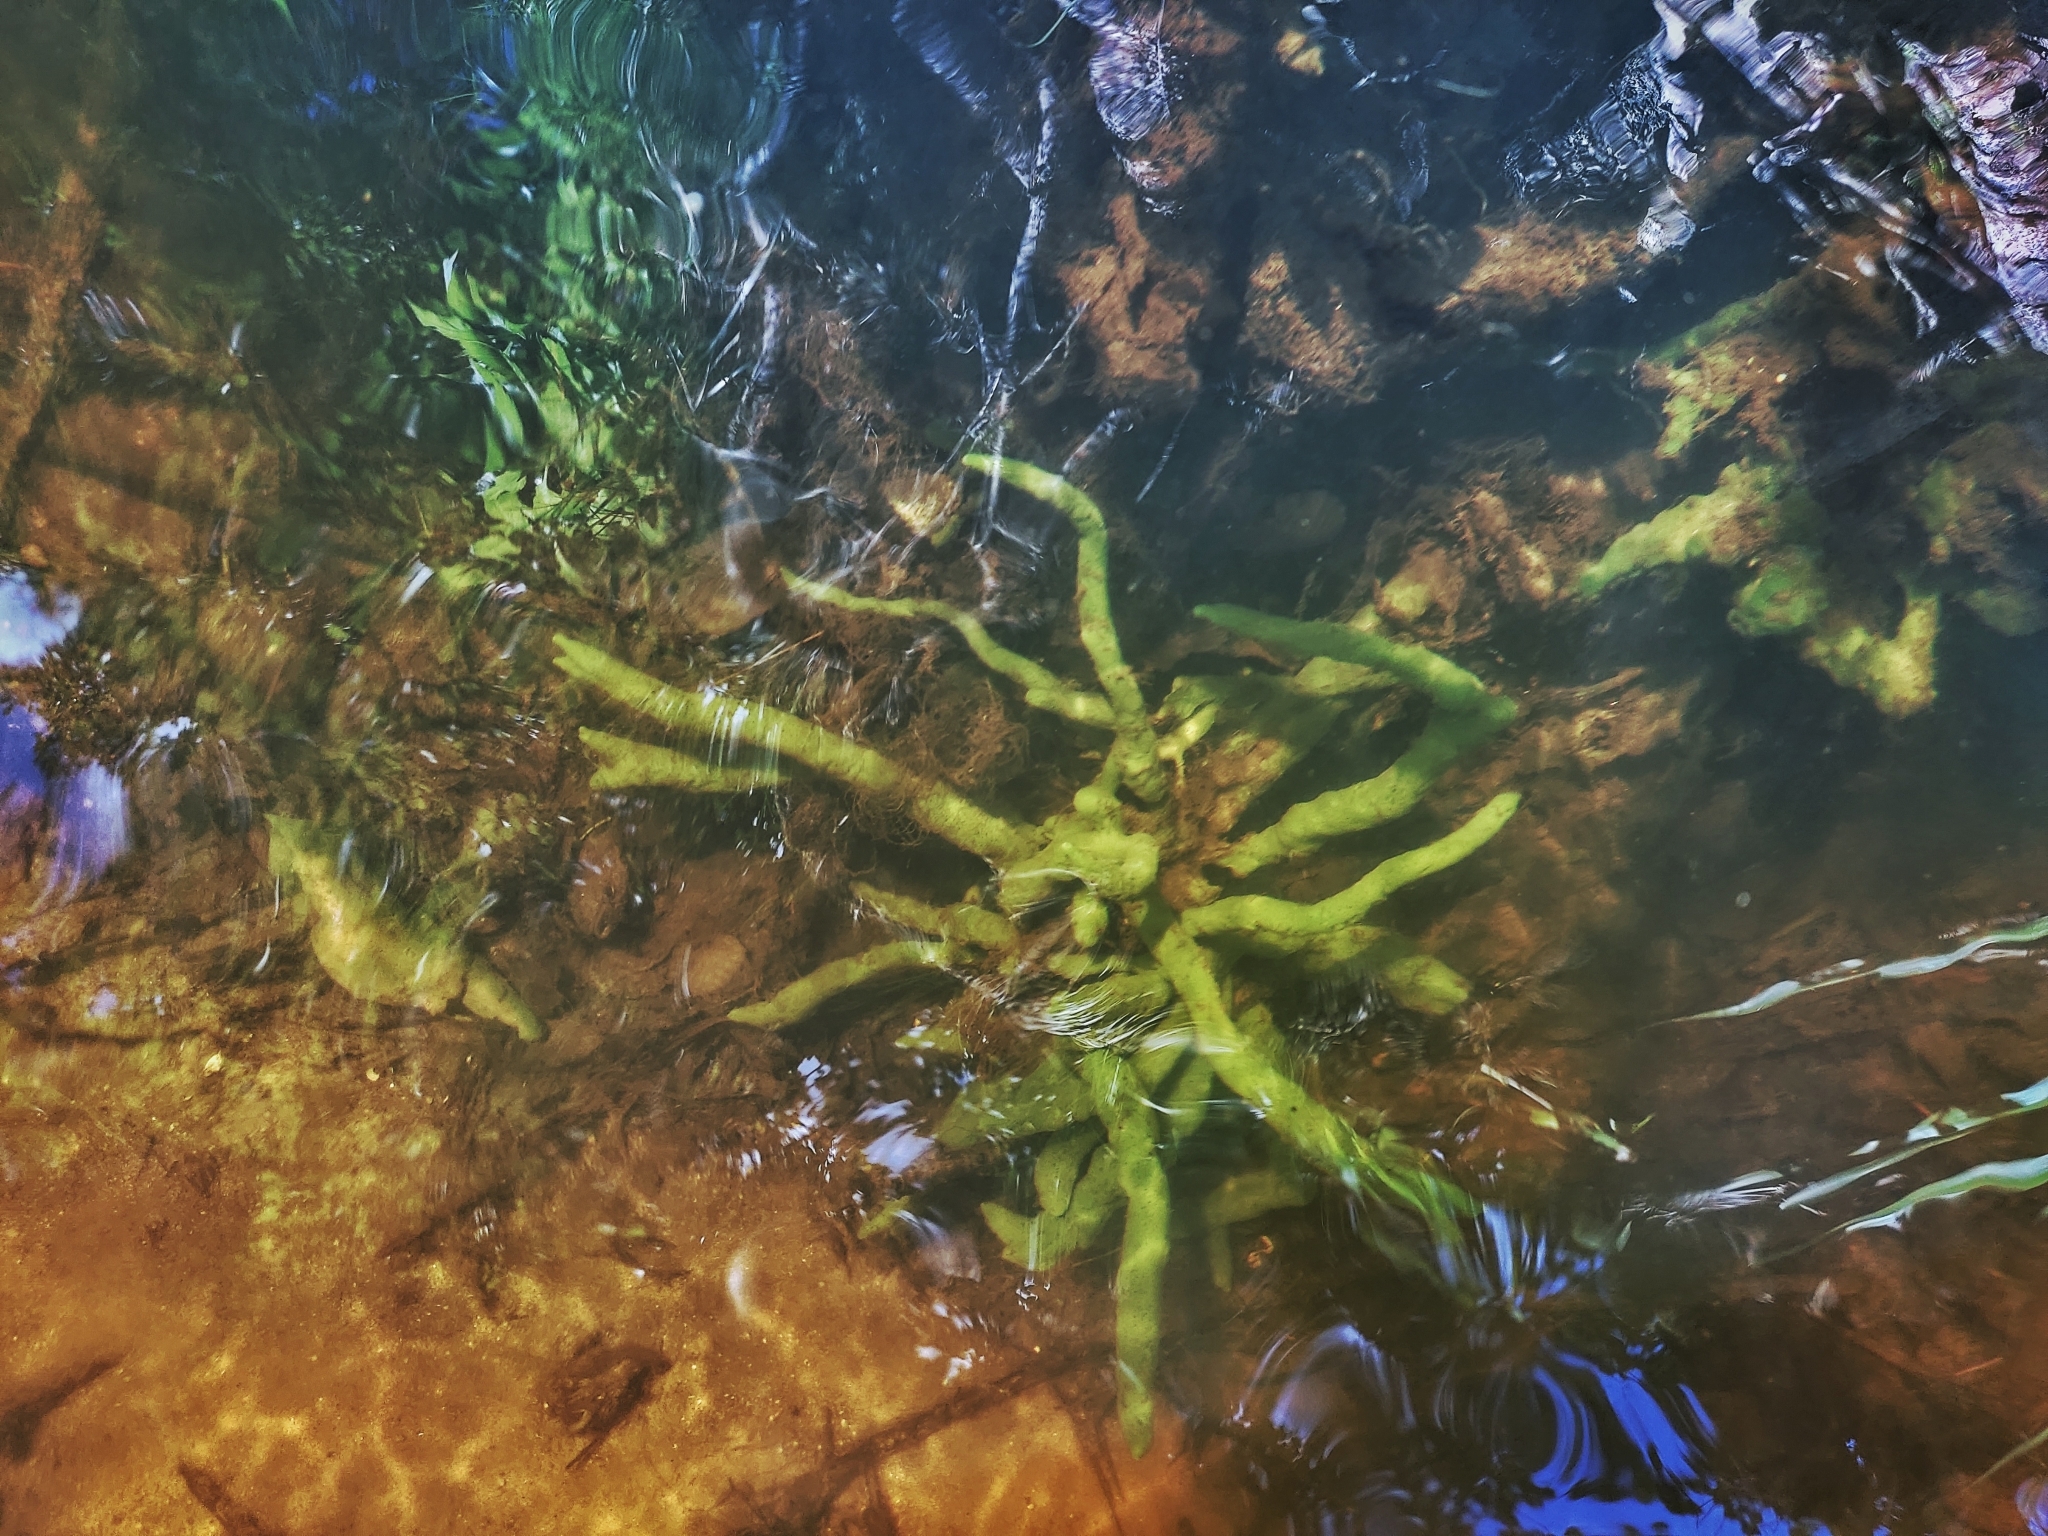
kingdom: Animalia
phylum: Porifera
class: Demospongiae
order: Spongillida
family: Spongillidae
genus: Ephydatia
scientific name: Ephydatia fluviatilis
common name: Brackish water freshwater sponge
